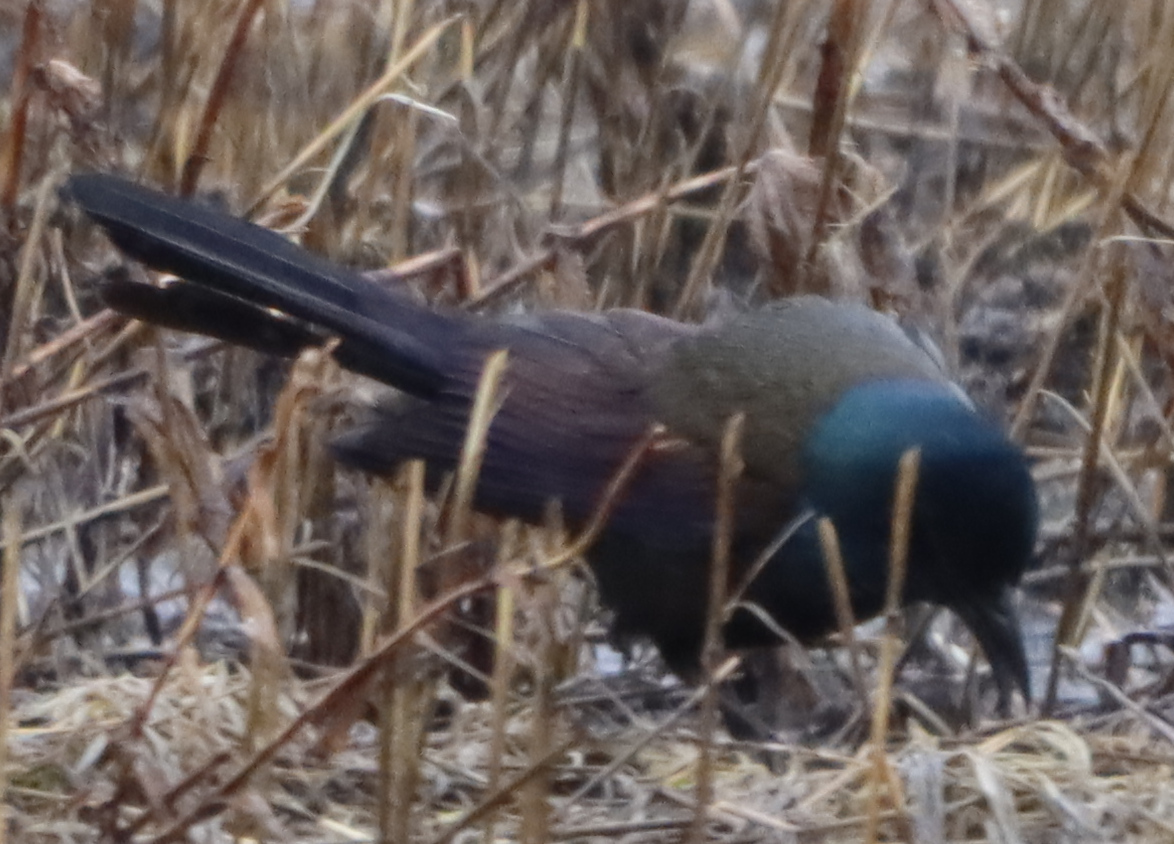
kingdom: Animalia
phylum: Chordata
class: Aves
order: Passeriformes
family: Icteridae
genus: Quiscalus
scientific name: Quiscalus quiscula
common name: Common grackle
